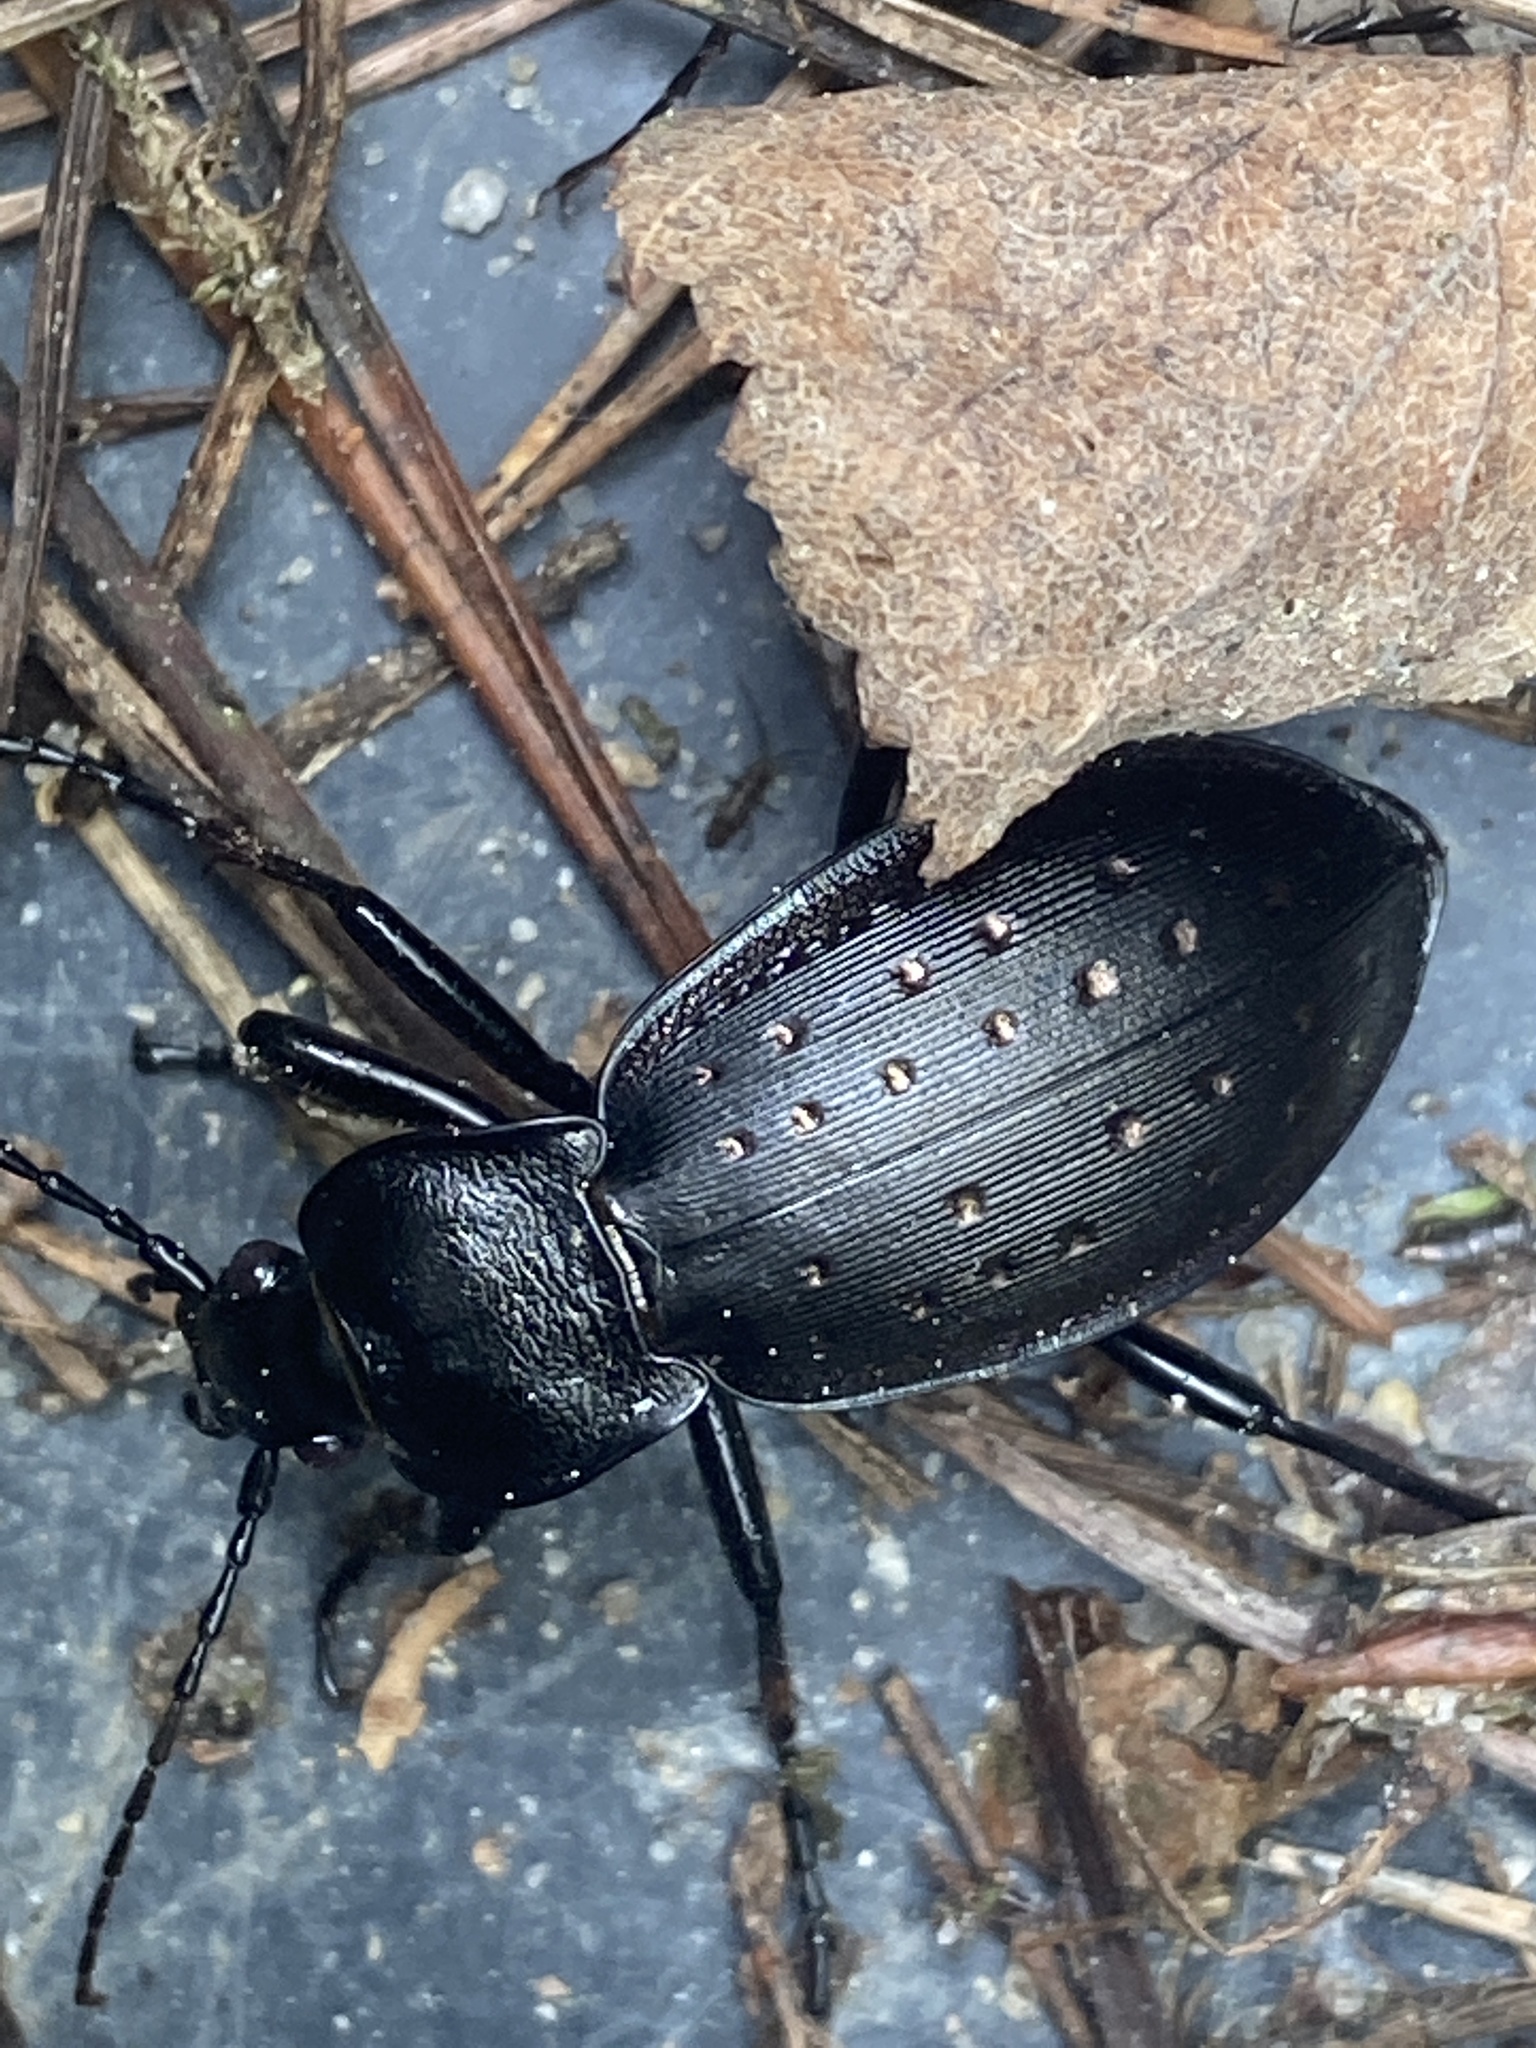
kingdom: Animalia
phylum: Arthropoda
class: Insecta
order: Coleoptera
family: Carabidae
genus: Carabus
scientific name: Carabus hortensis
